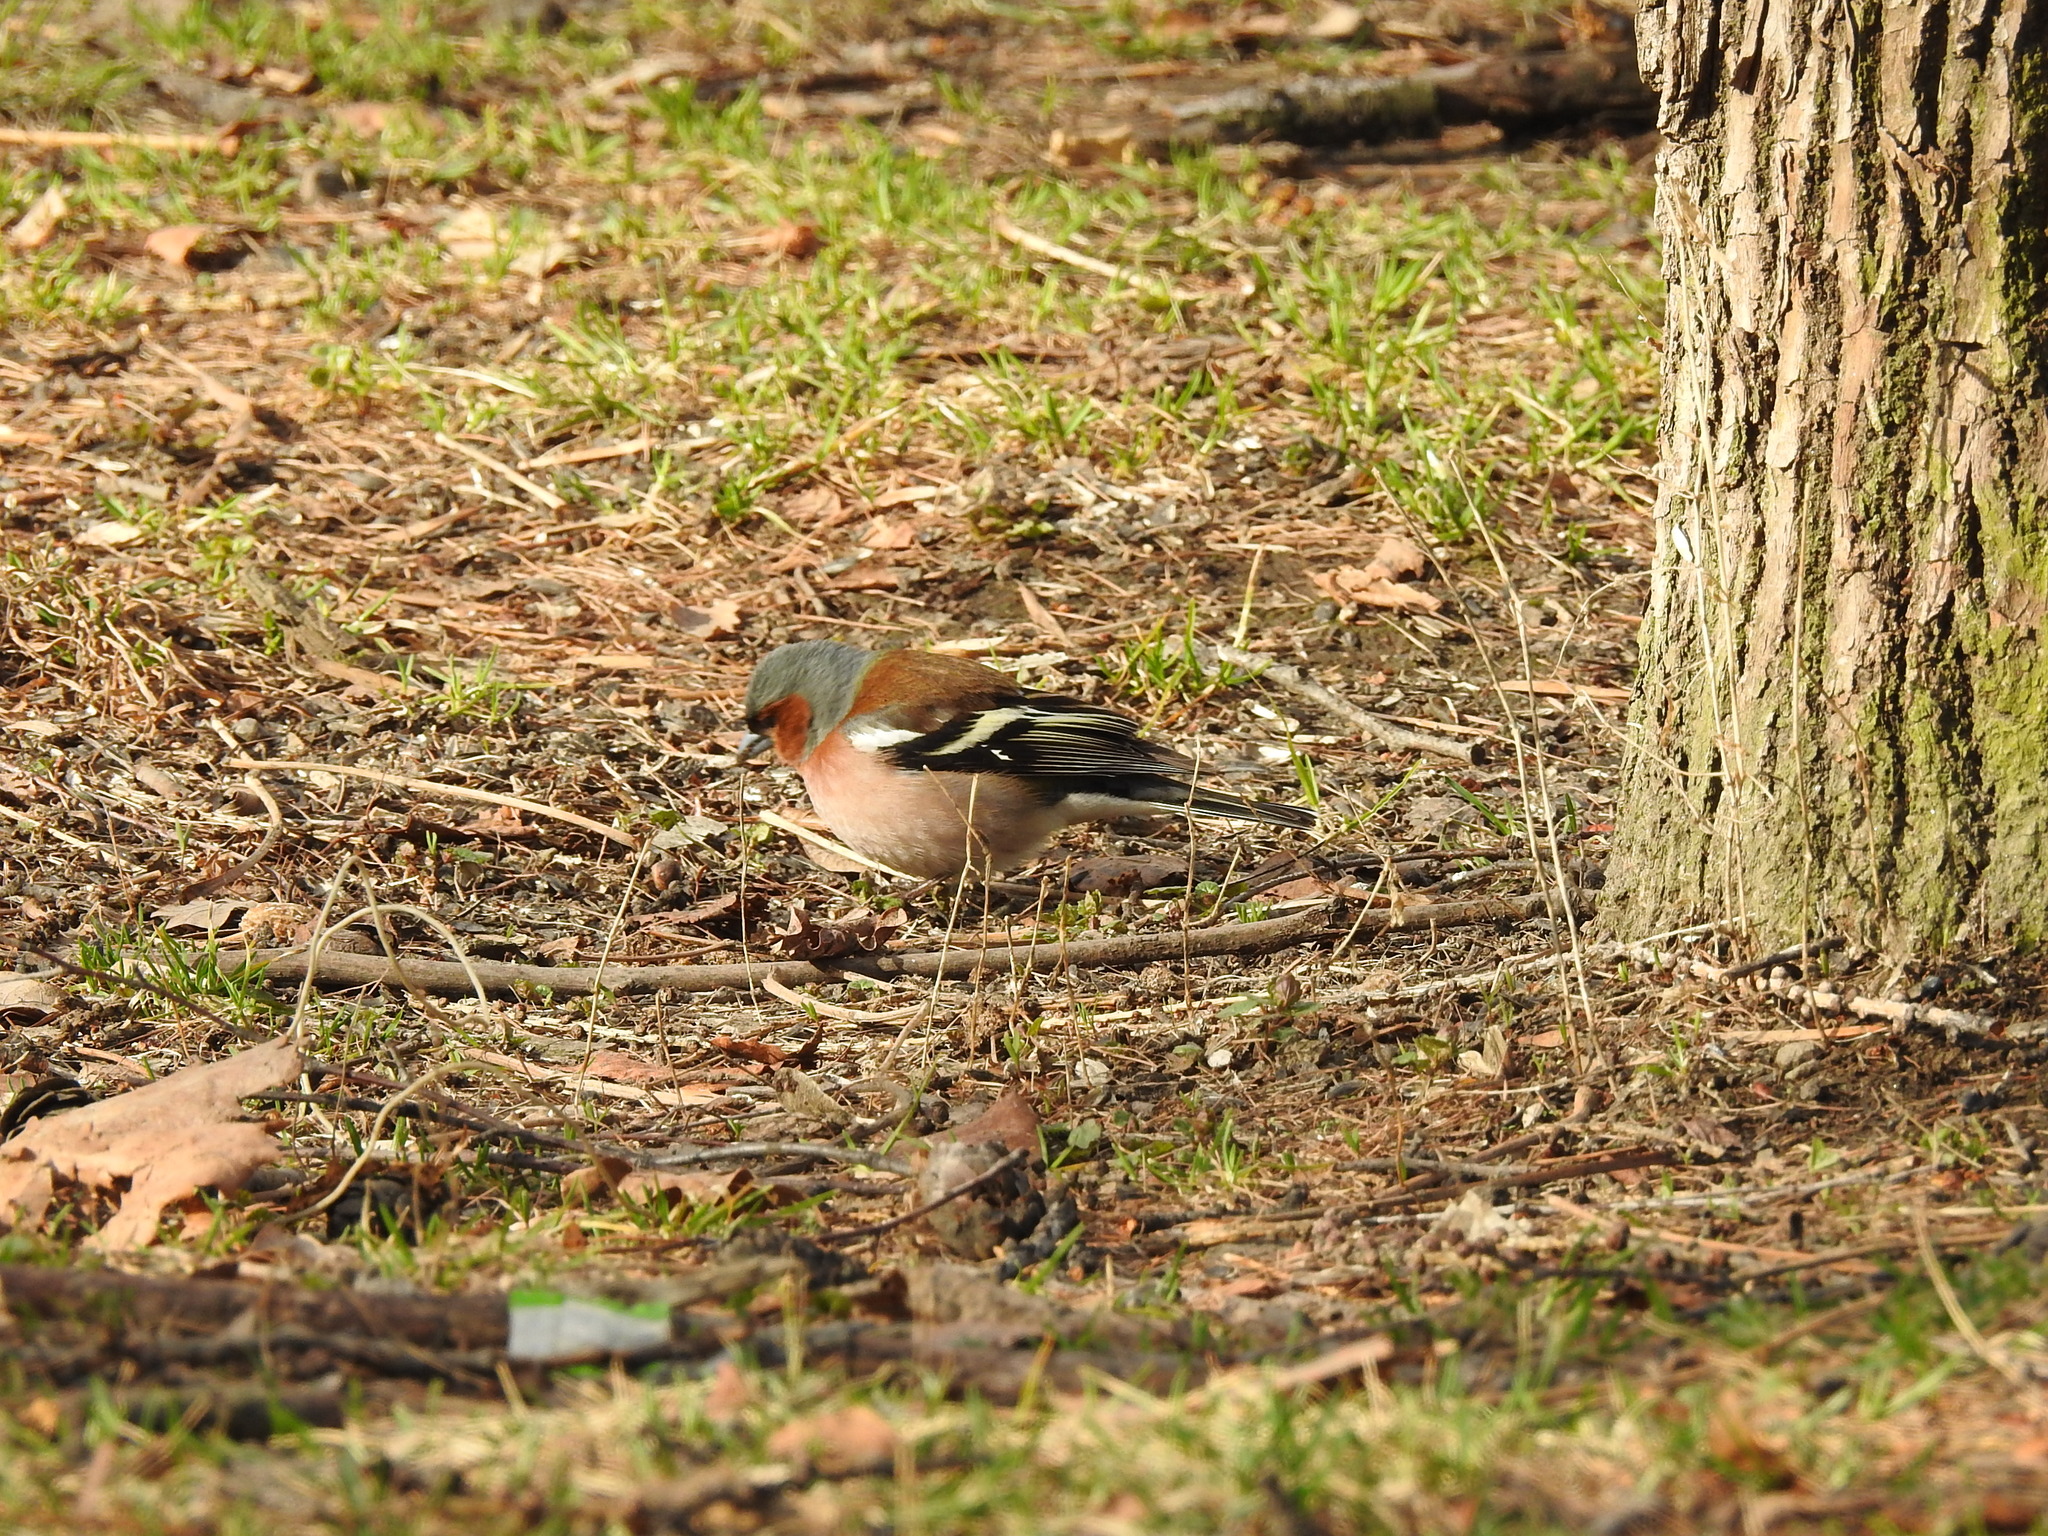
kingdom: Animalia
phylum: Chordata
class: Aves
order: Passeriformes
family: Fringillidae
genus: Fringilla
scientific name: Fringilla coelebs
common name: Common chaffinch
